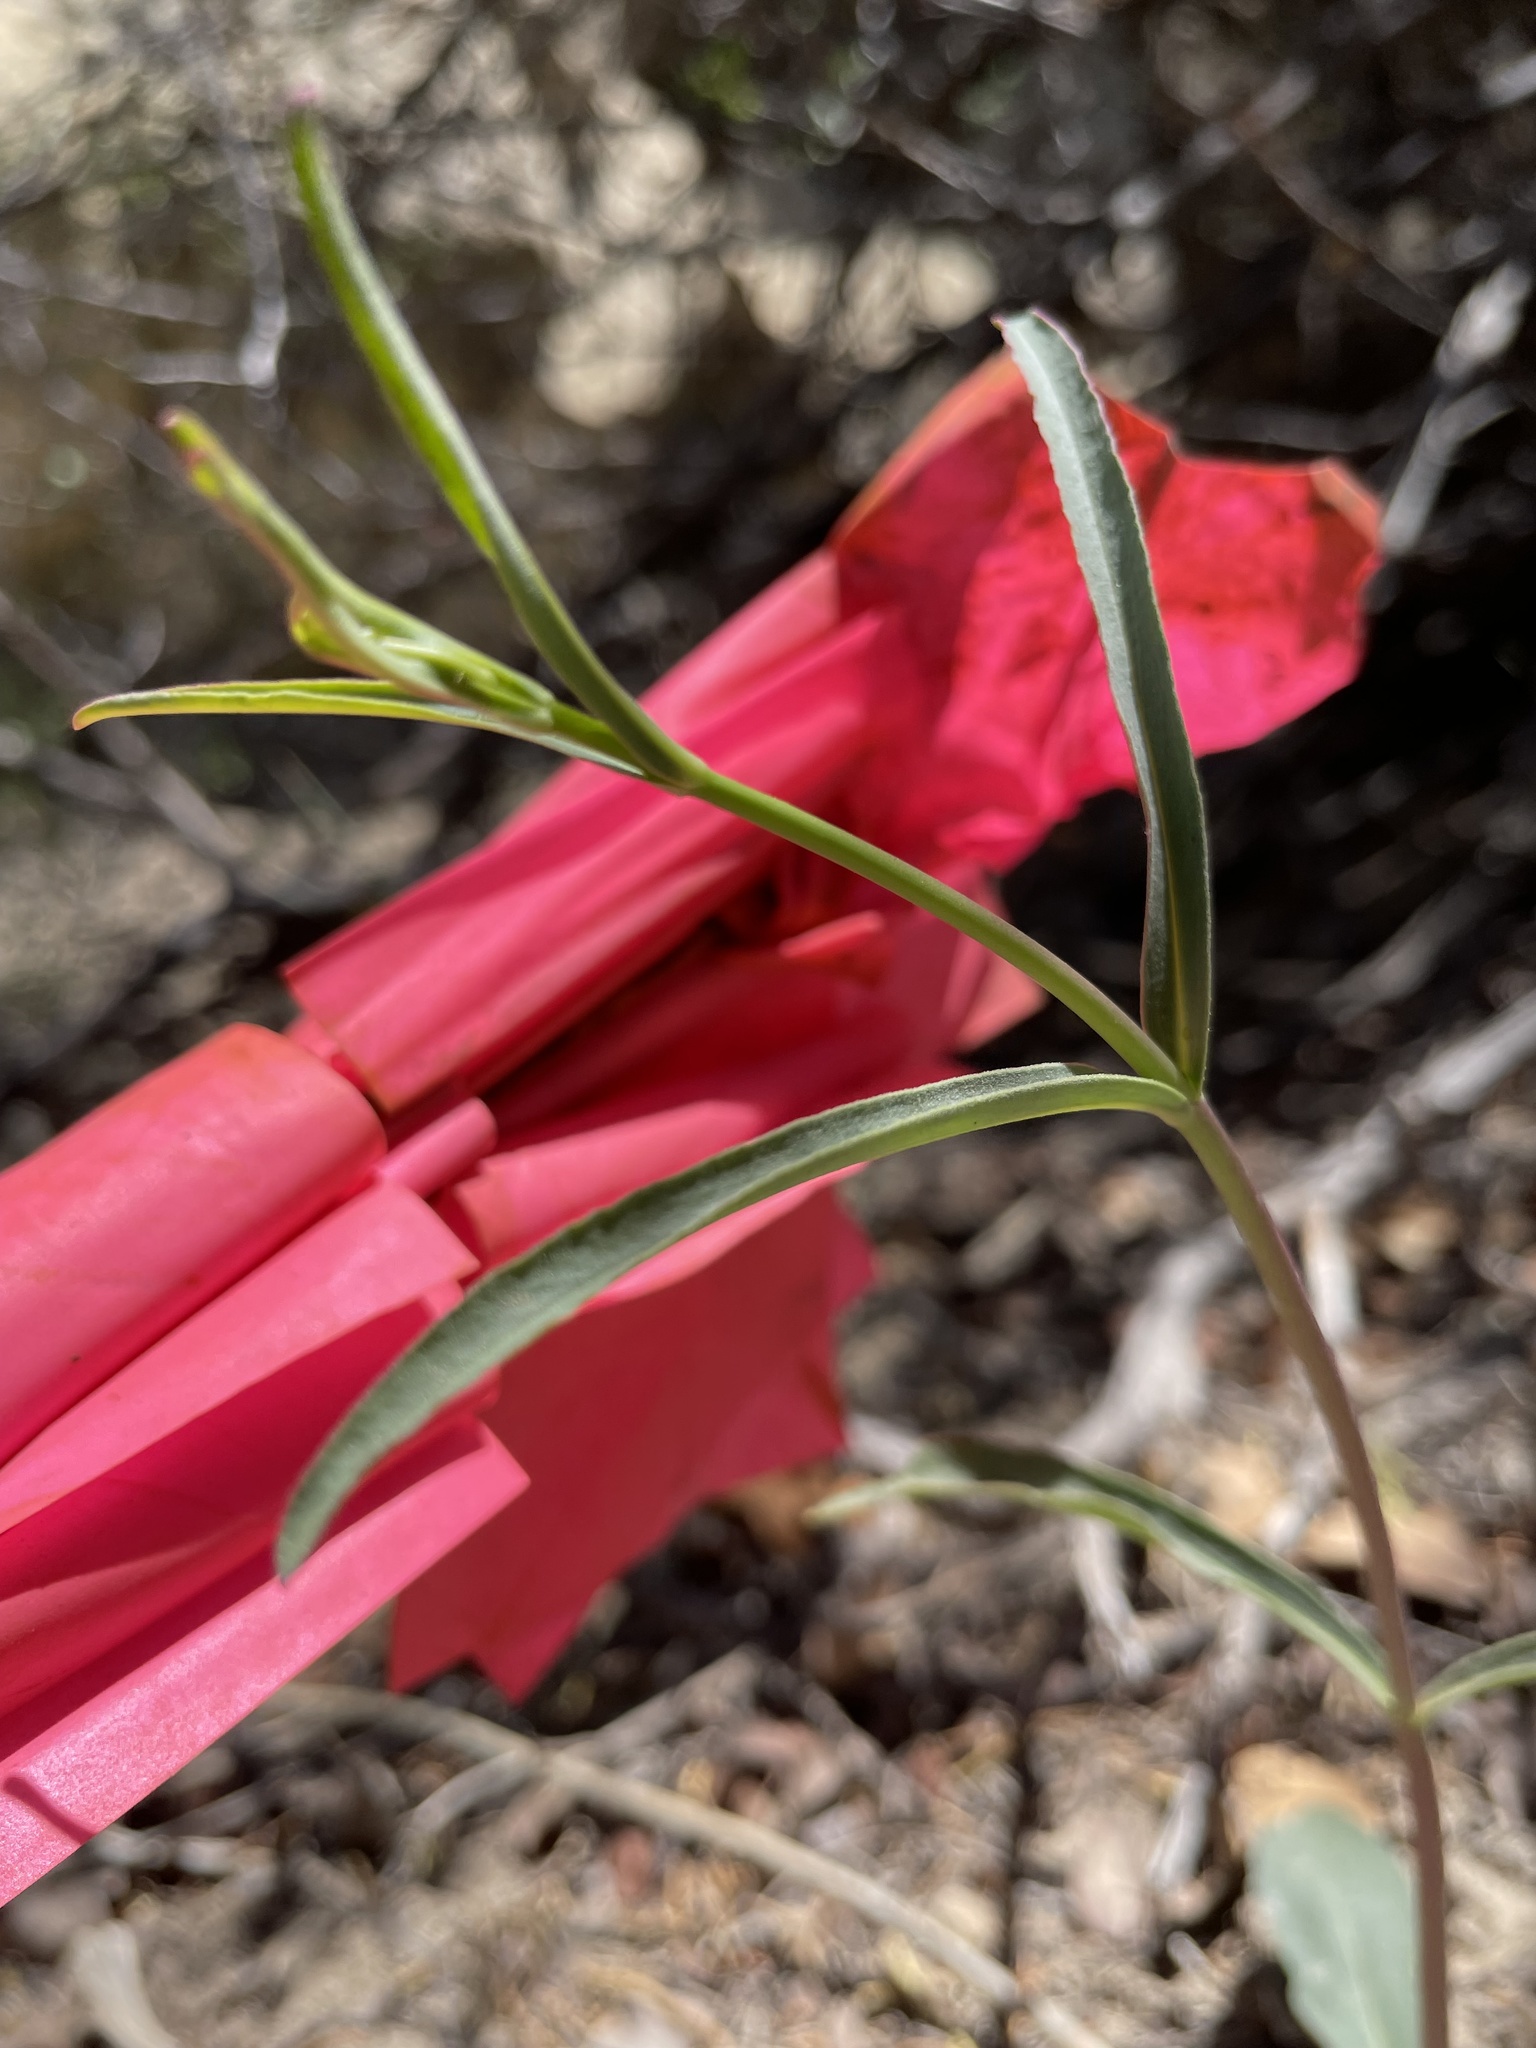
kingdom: Plantae
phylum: Tracheophyta
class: Magnoliopsida
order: Lamiales
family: Plantaginaceae
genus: Penstemon
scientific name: Penstemon barbatus
